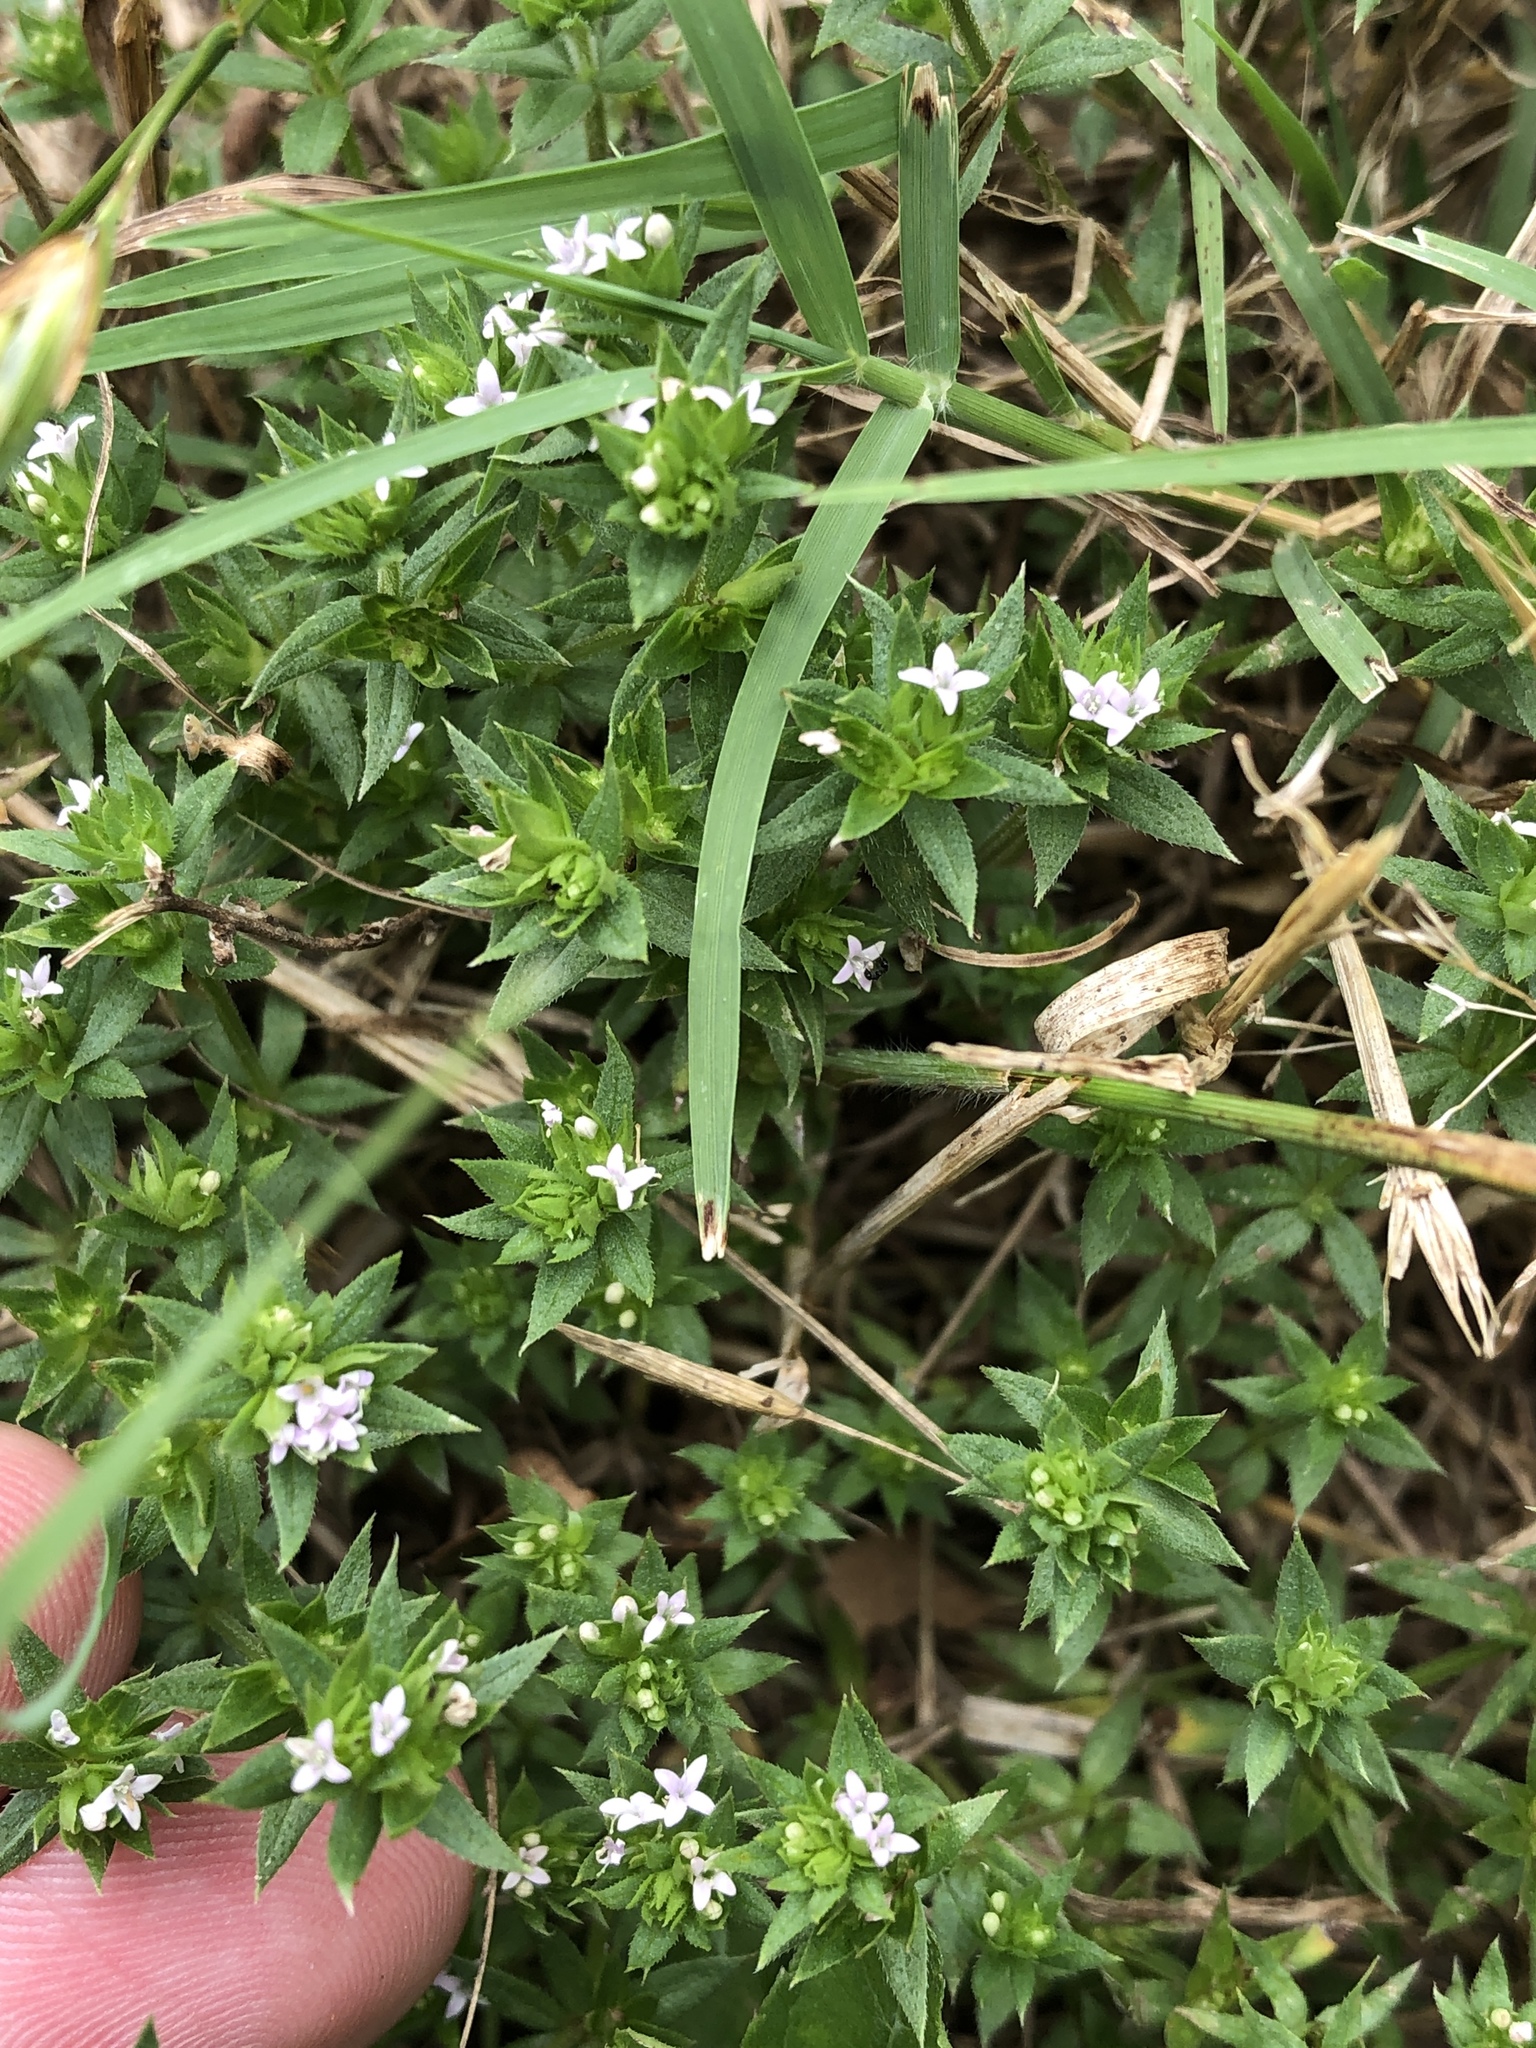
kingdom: Plantae
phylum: Tracheophyta
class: Magnoliopsida
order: Gentianales
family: Rubiaceae
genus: Sherardia
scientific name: Sherardia arvensis
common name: Field madder
